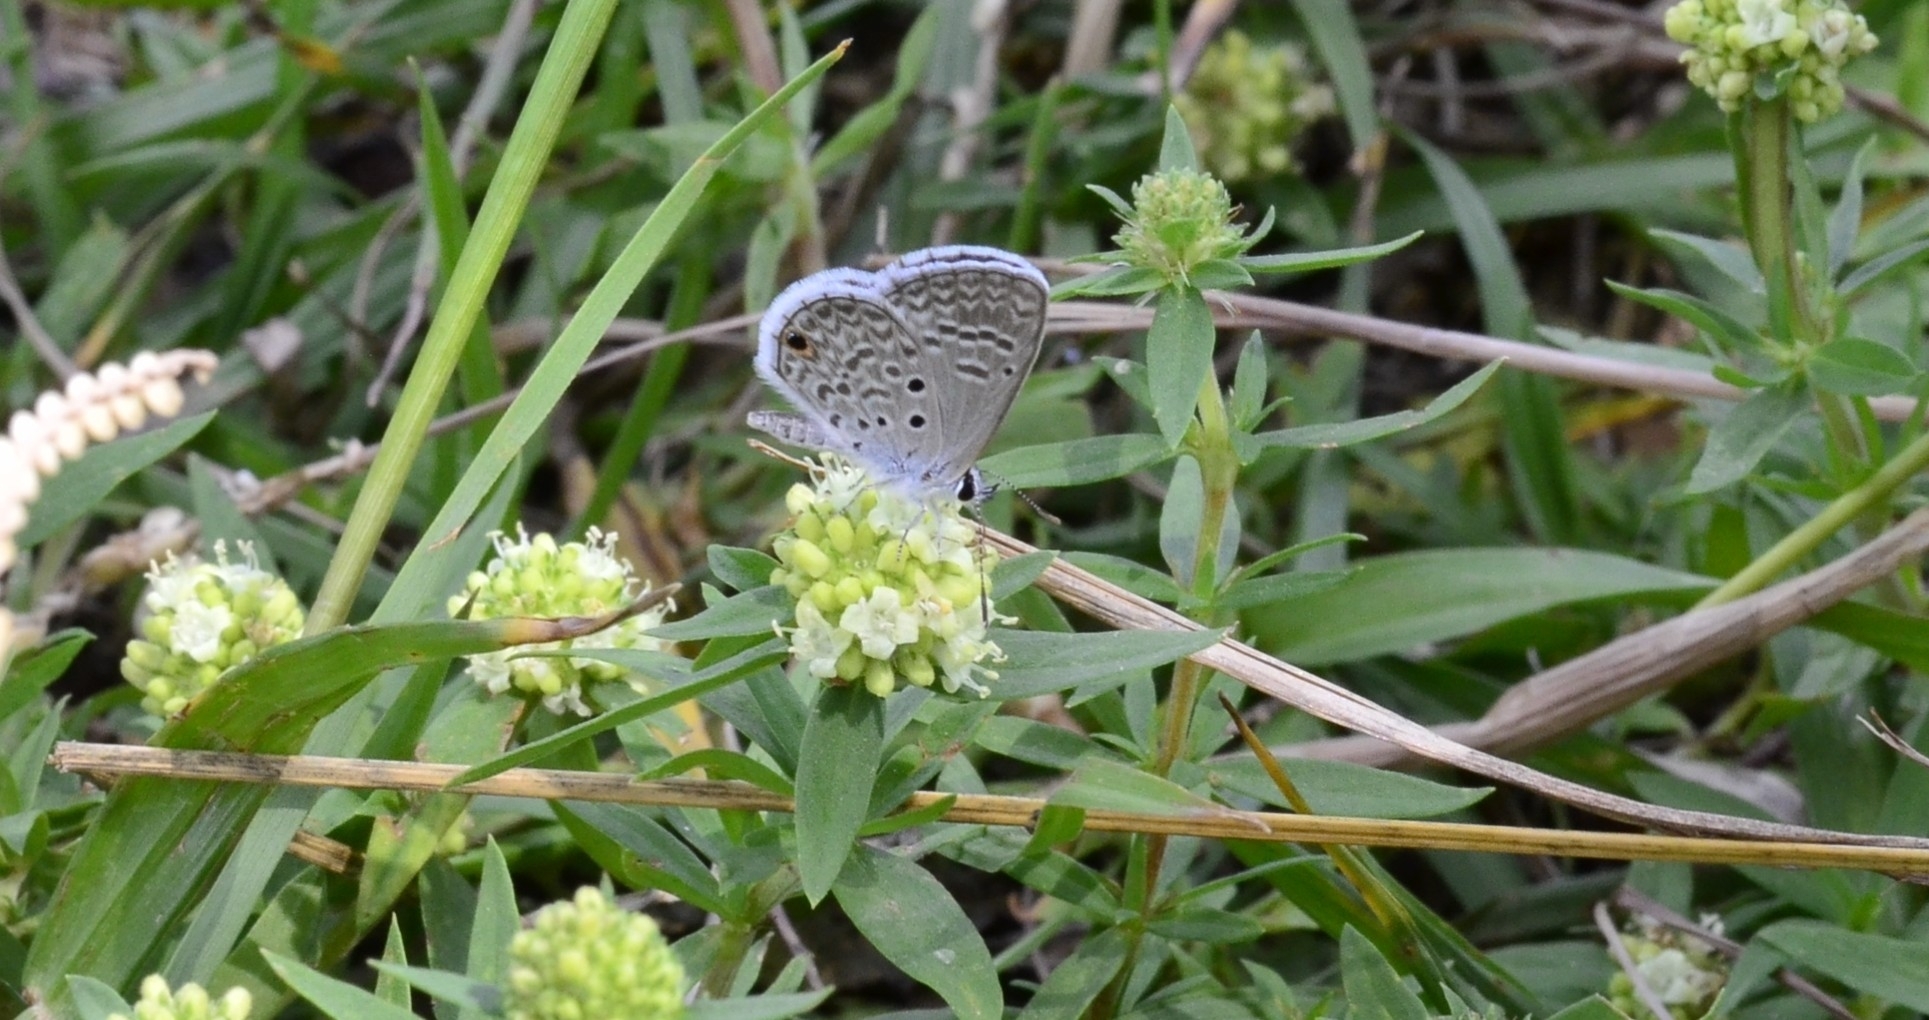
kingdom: Animalia
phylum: Arthropoda
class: Insecta
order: Lepidoptera
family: Lycaenidae
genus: Hemiargus
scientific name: Hemiargus hanno
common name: Common blue
